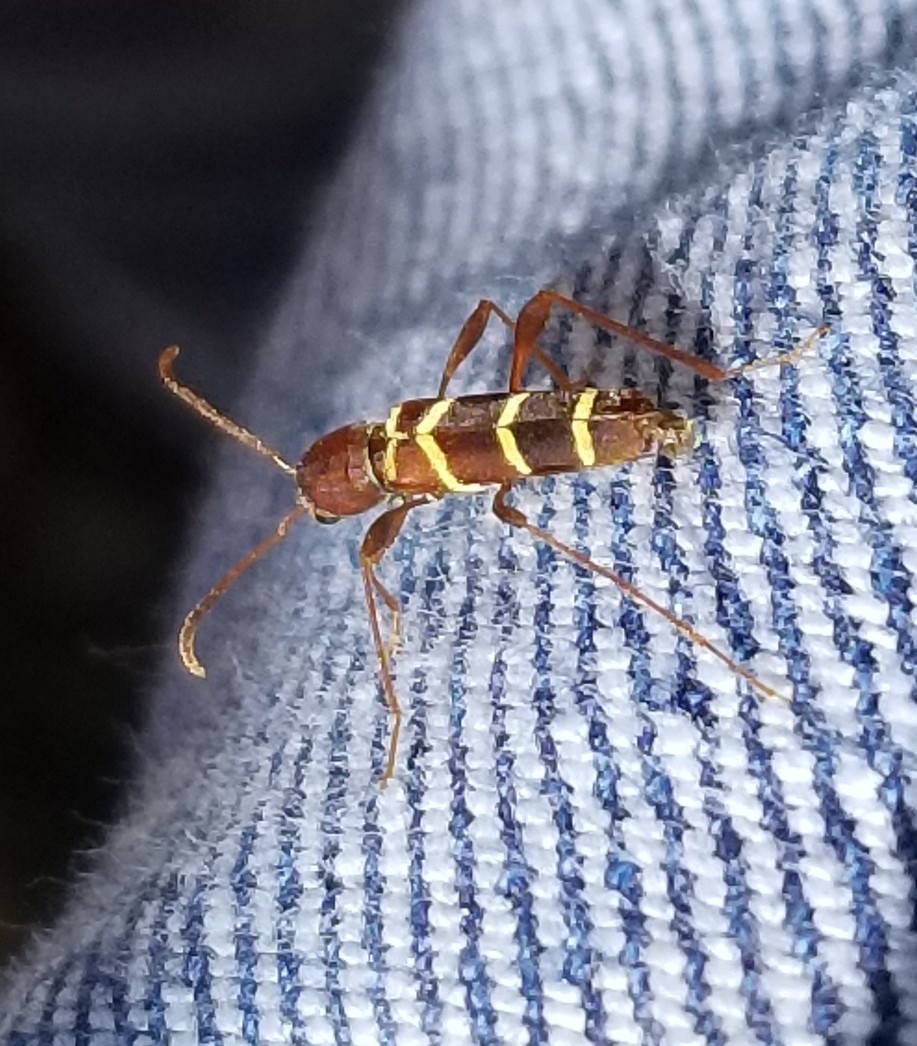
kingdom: Animalia
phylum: Arthropoda
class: Insecta
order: Coleoptera
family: Cerambycidae
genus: Neoclytus
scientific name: Neoclytus acuminatus
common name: Read-headed ash borer
